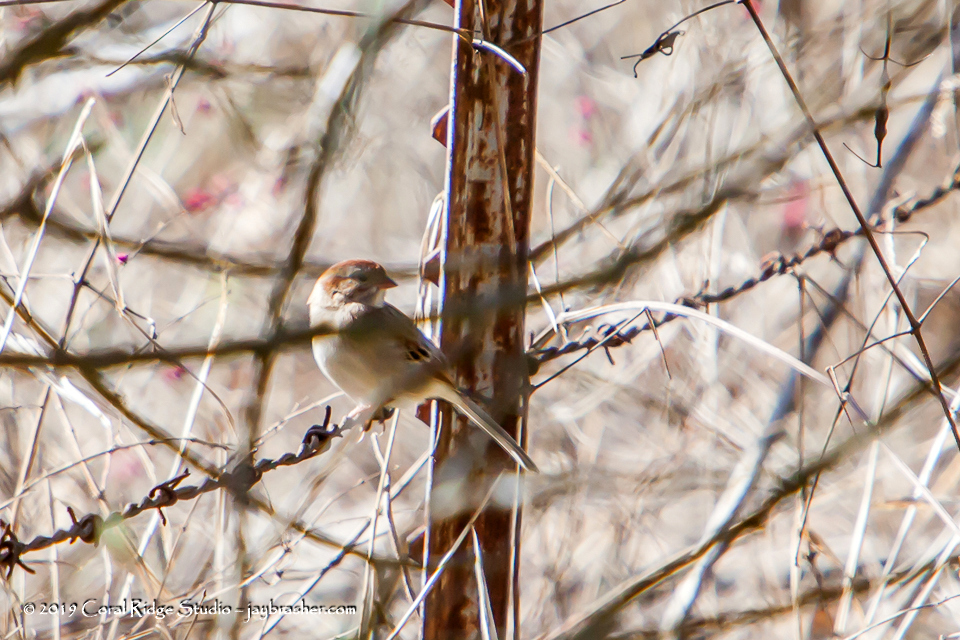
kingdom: Animalia
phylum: Chordata
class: Aves
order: Passeriformes
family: Passerellidae
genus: Spizella
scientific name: Spizella pusilla
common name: Field sparrow
